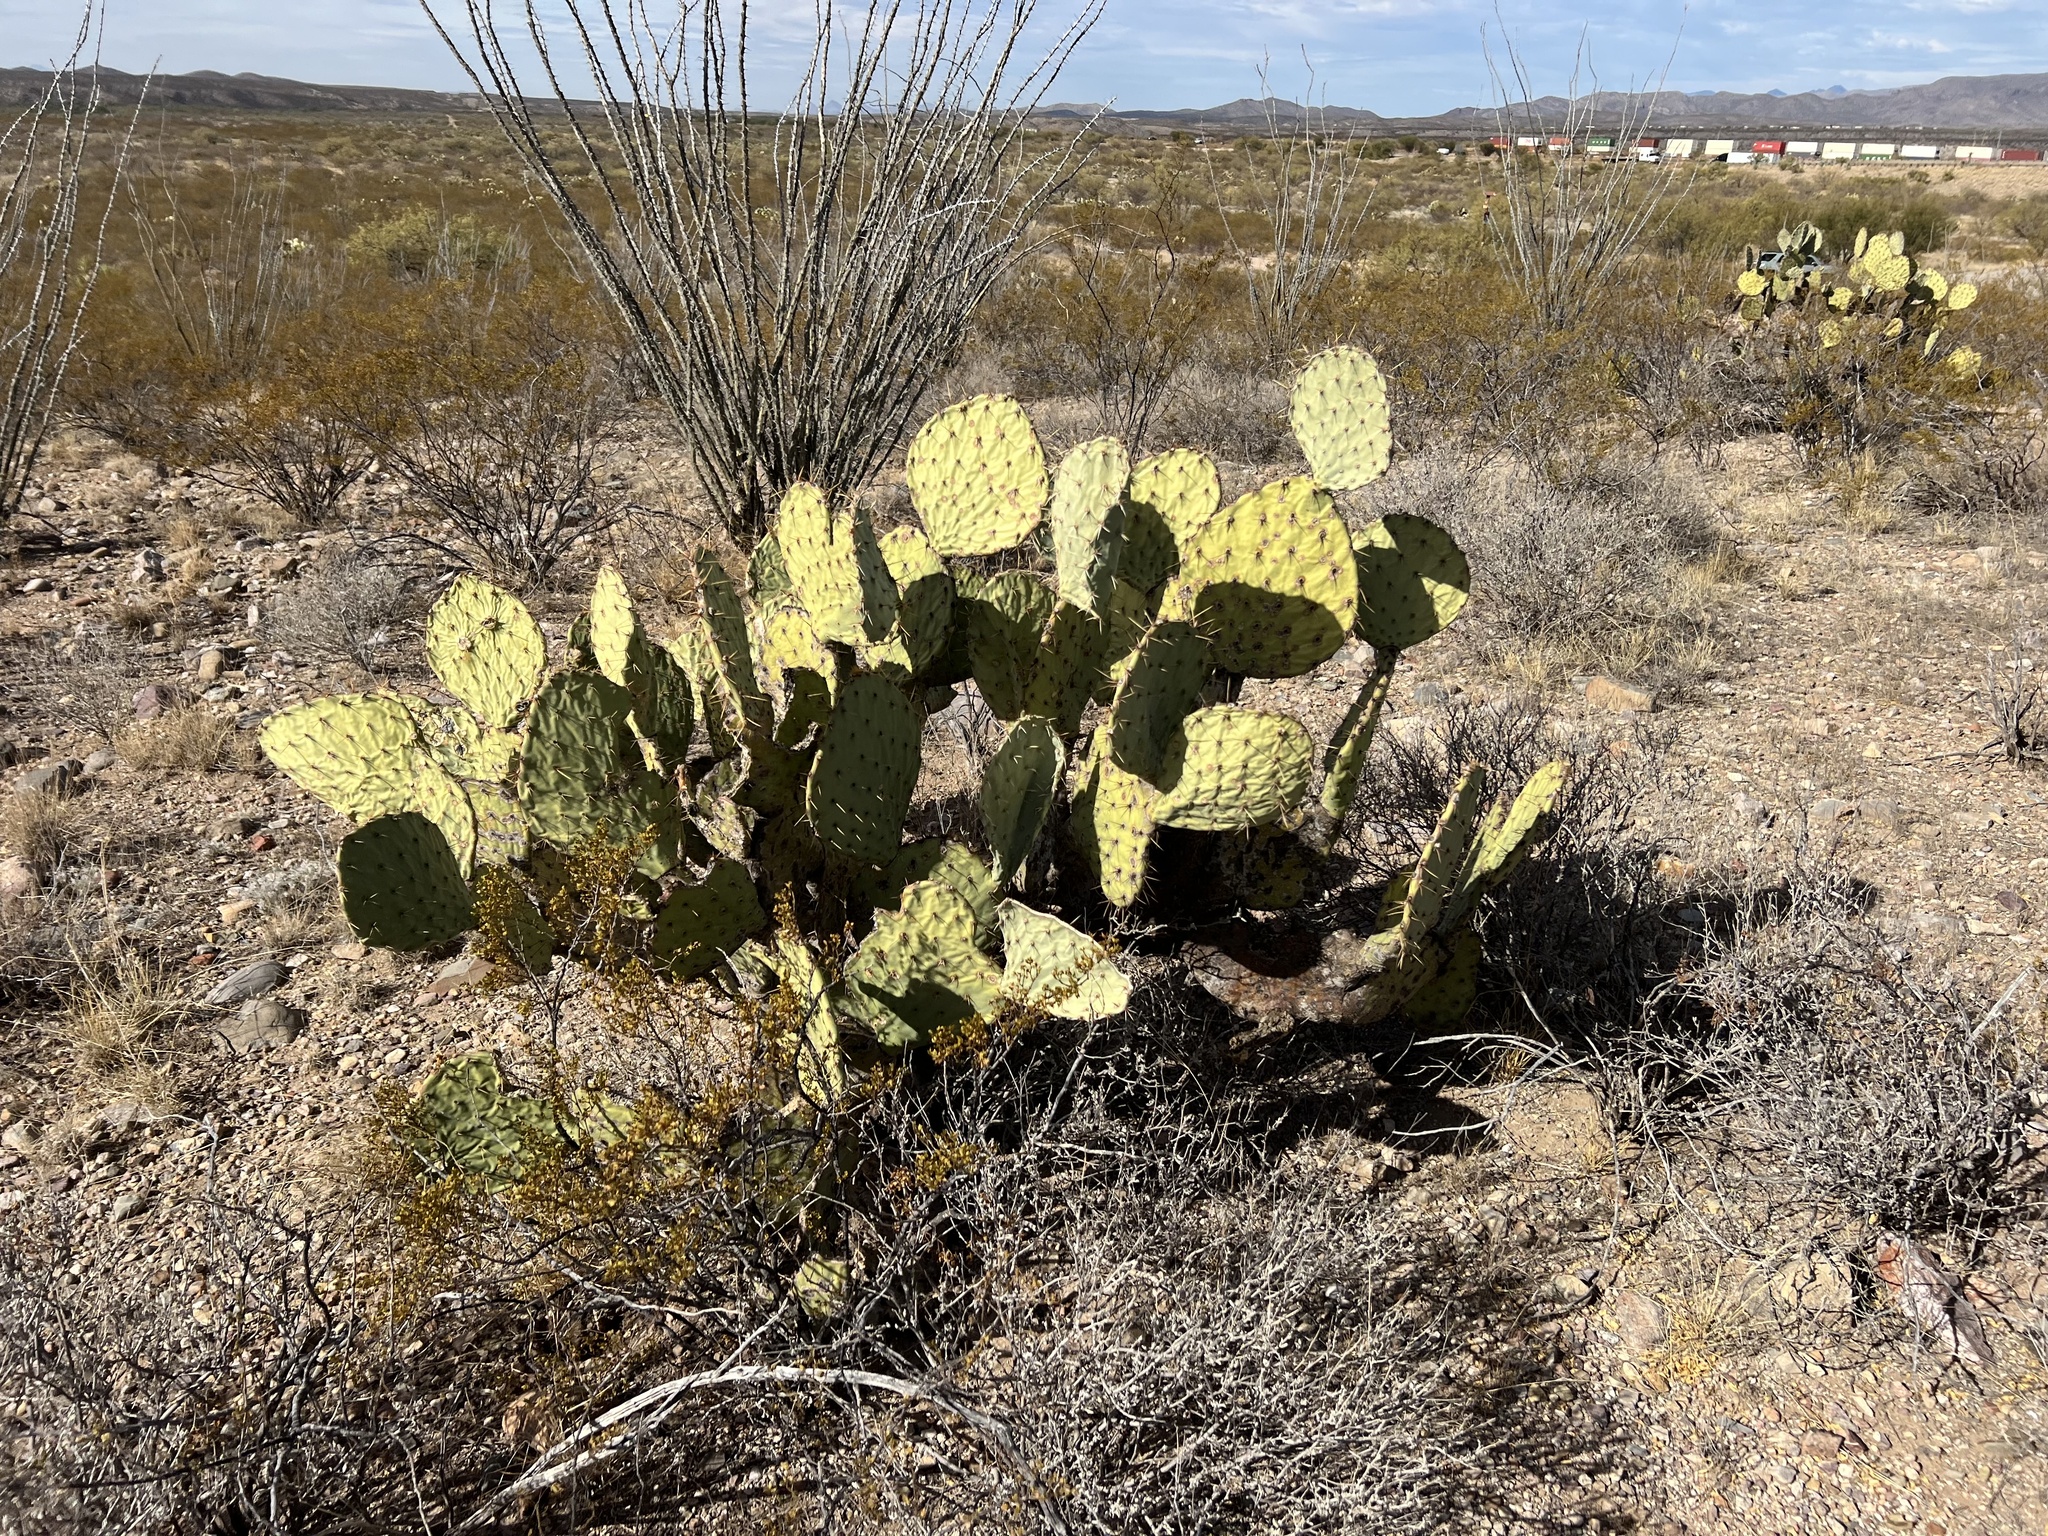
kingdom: Plantae
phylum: Tracheophyta
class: Magnoliopsida
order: Caryophyllales
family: Cactaceae
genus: Opuntia
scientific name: Opuntia engelmannii
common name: Cactus-apple
